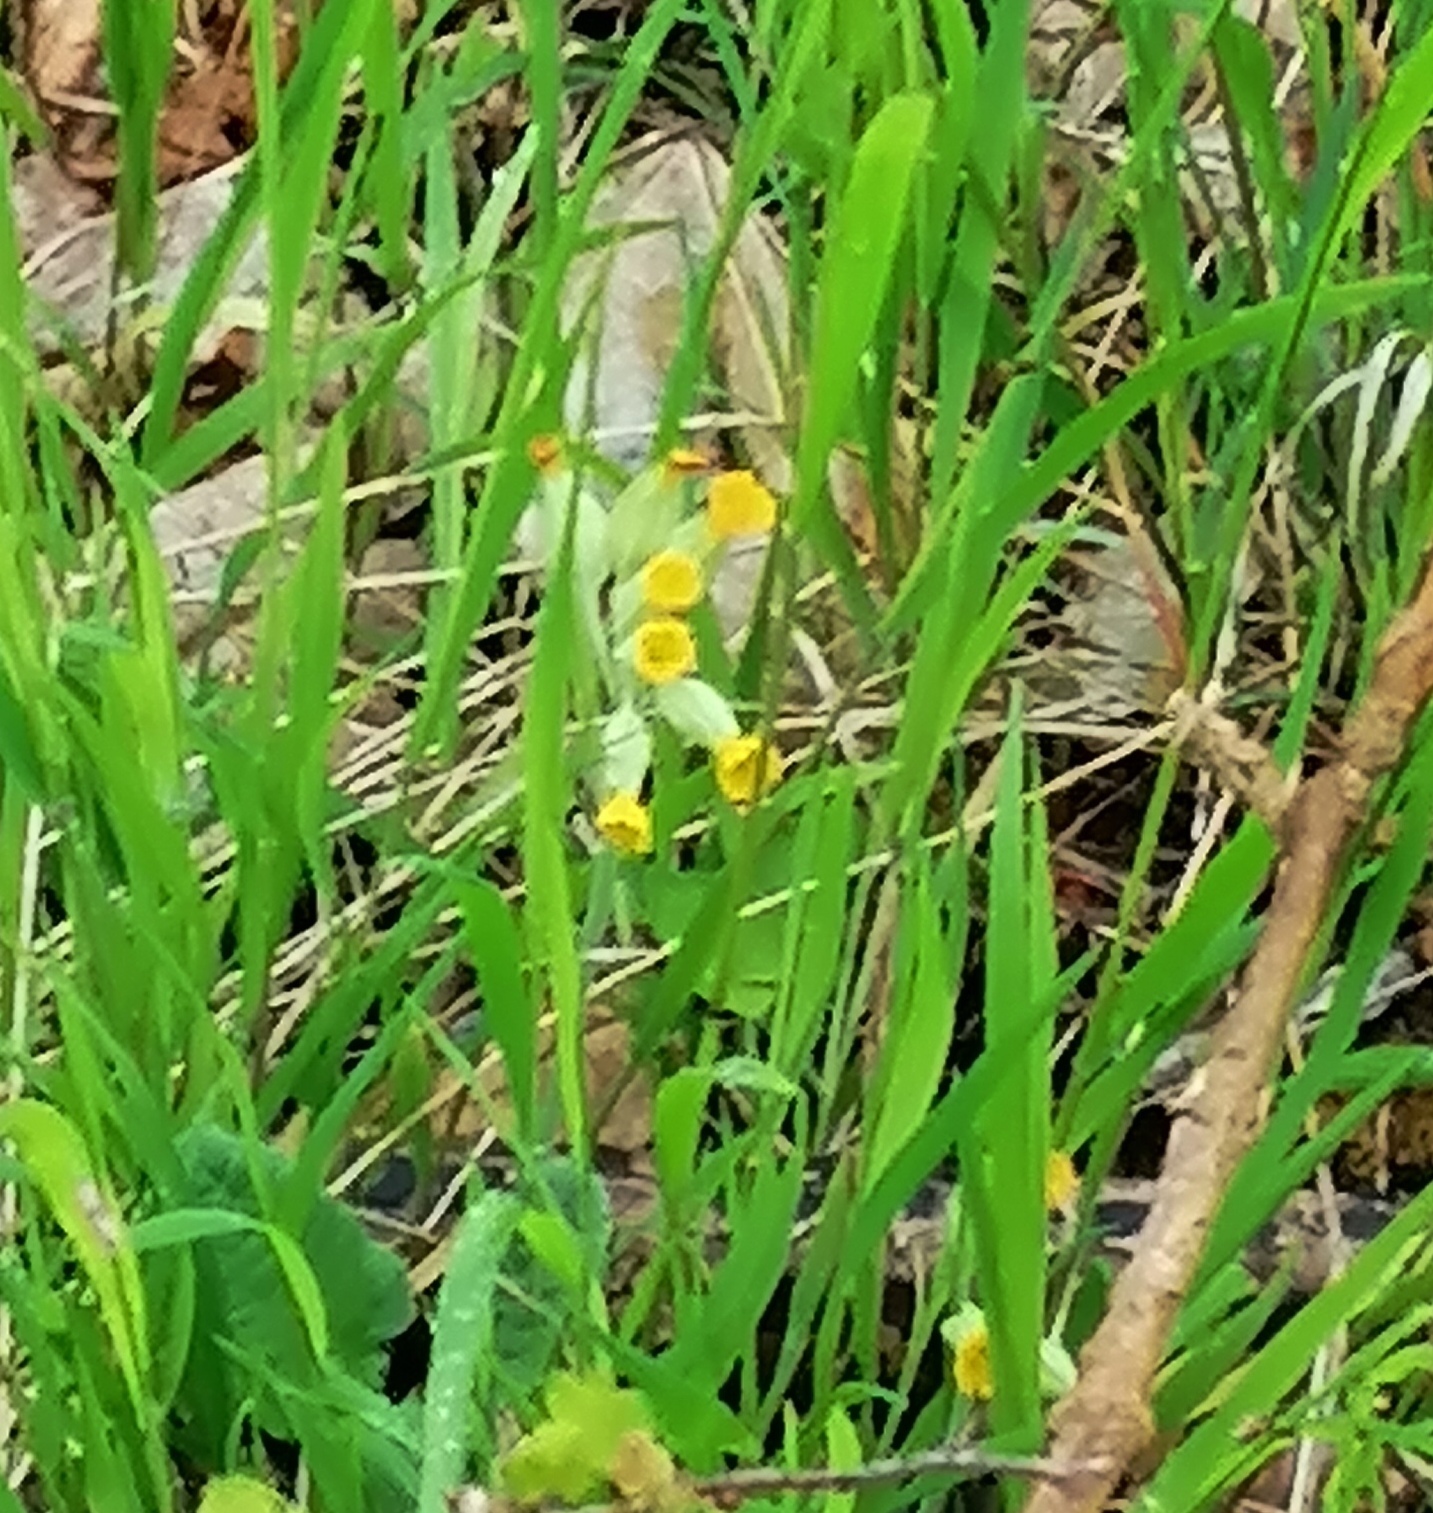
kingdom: Plantae
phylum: Tracheophyta
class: Magnoliopsida
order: Ericales
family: Primulaceae
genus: Primula
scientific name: Primula veris
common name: Cowslip
